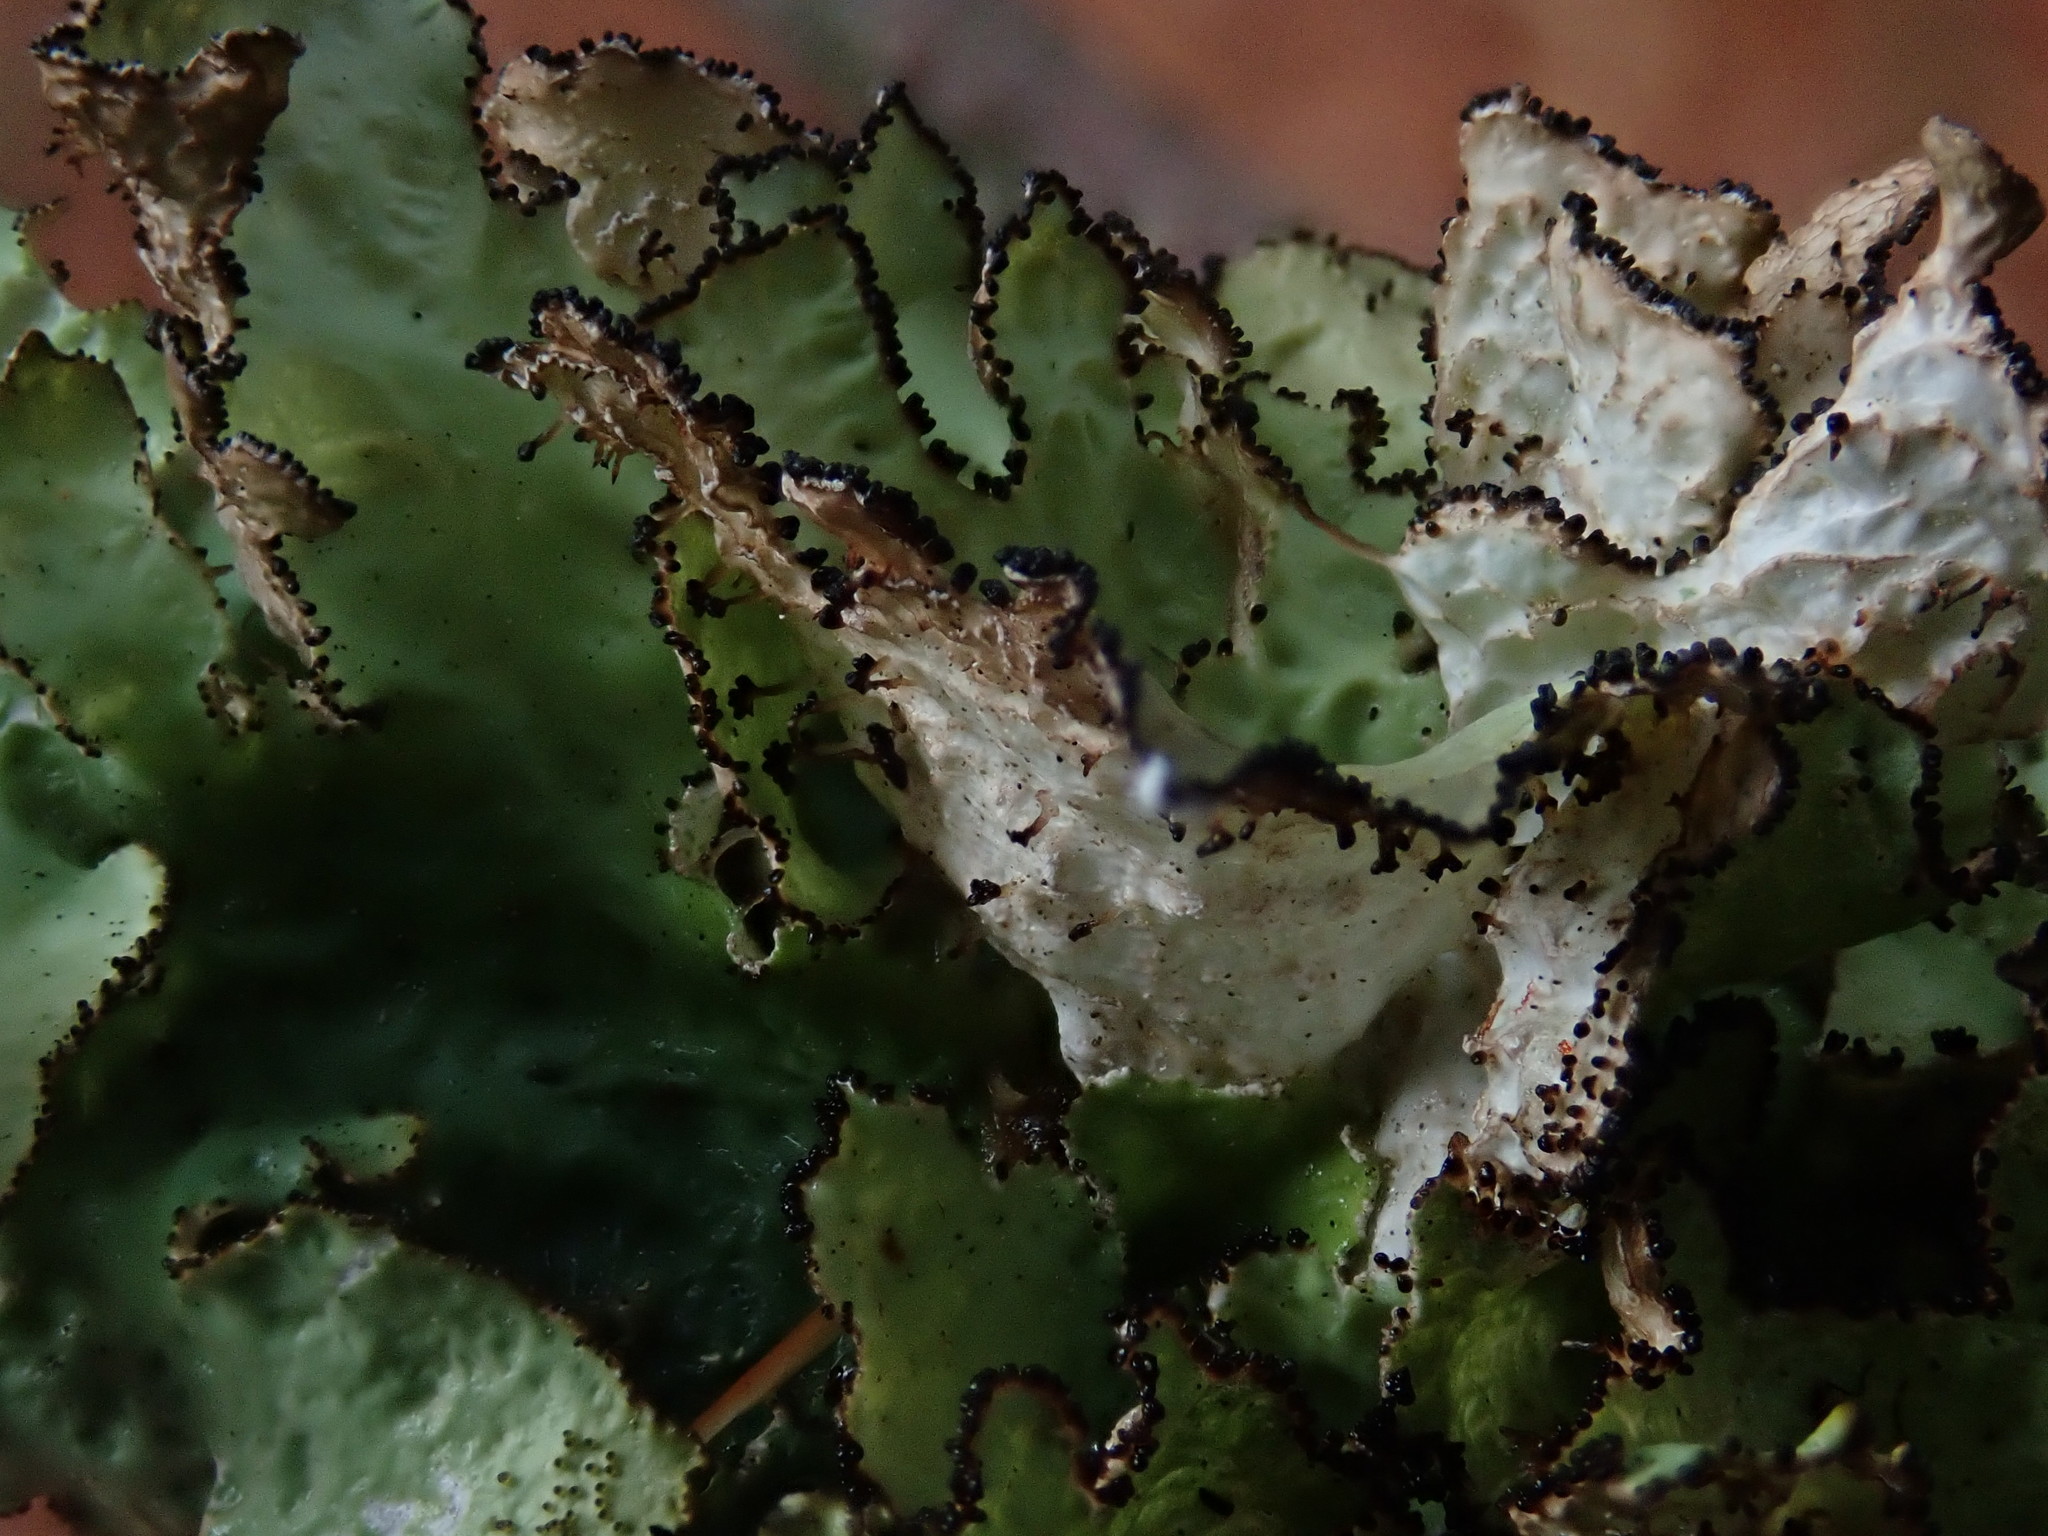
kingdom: Fungi
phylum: Ascomycota
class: Lecanoromycetes
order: Lecanorales
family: Parmeliaceae
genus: Platismatia
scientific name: Platismatia tuckermanii
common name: Crumpled rag lichen
